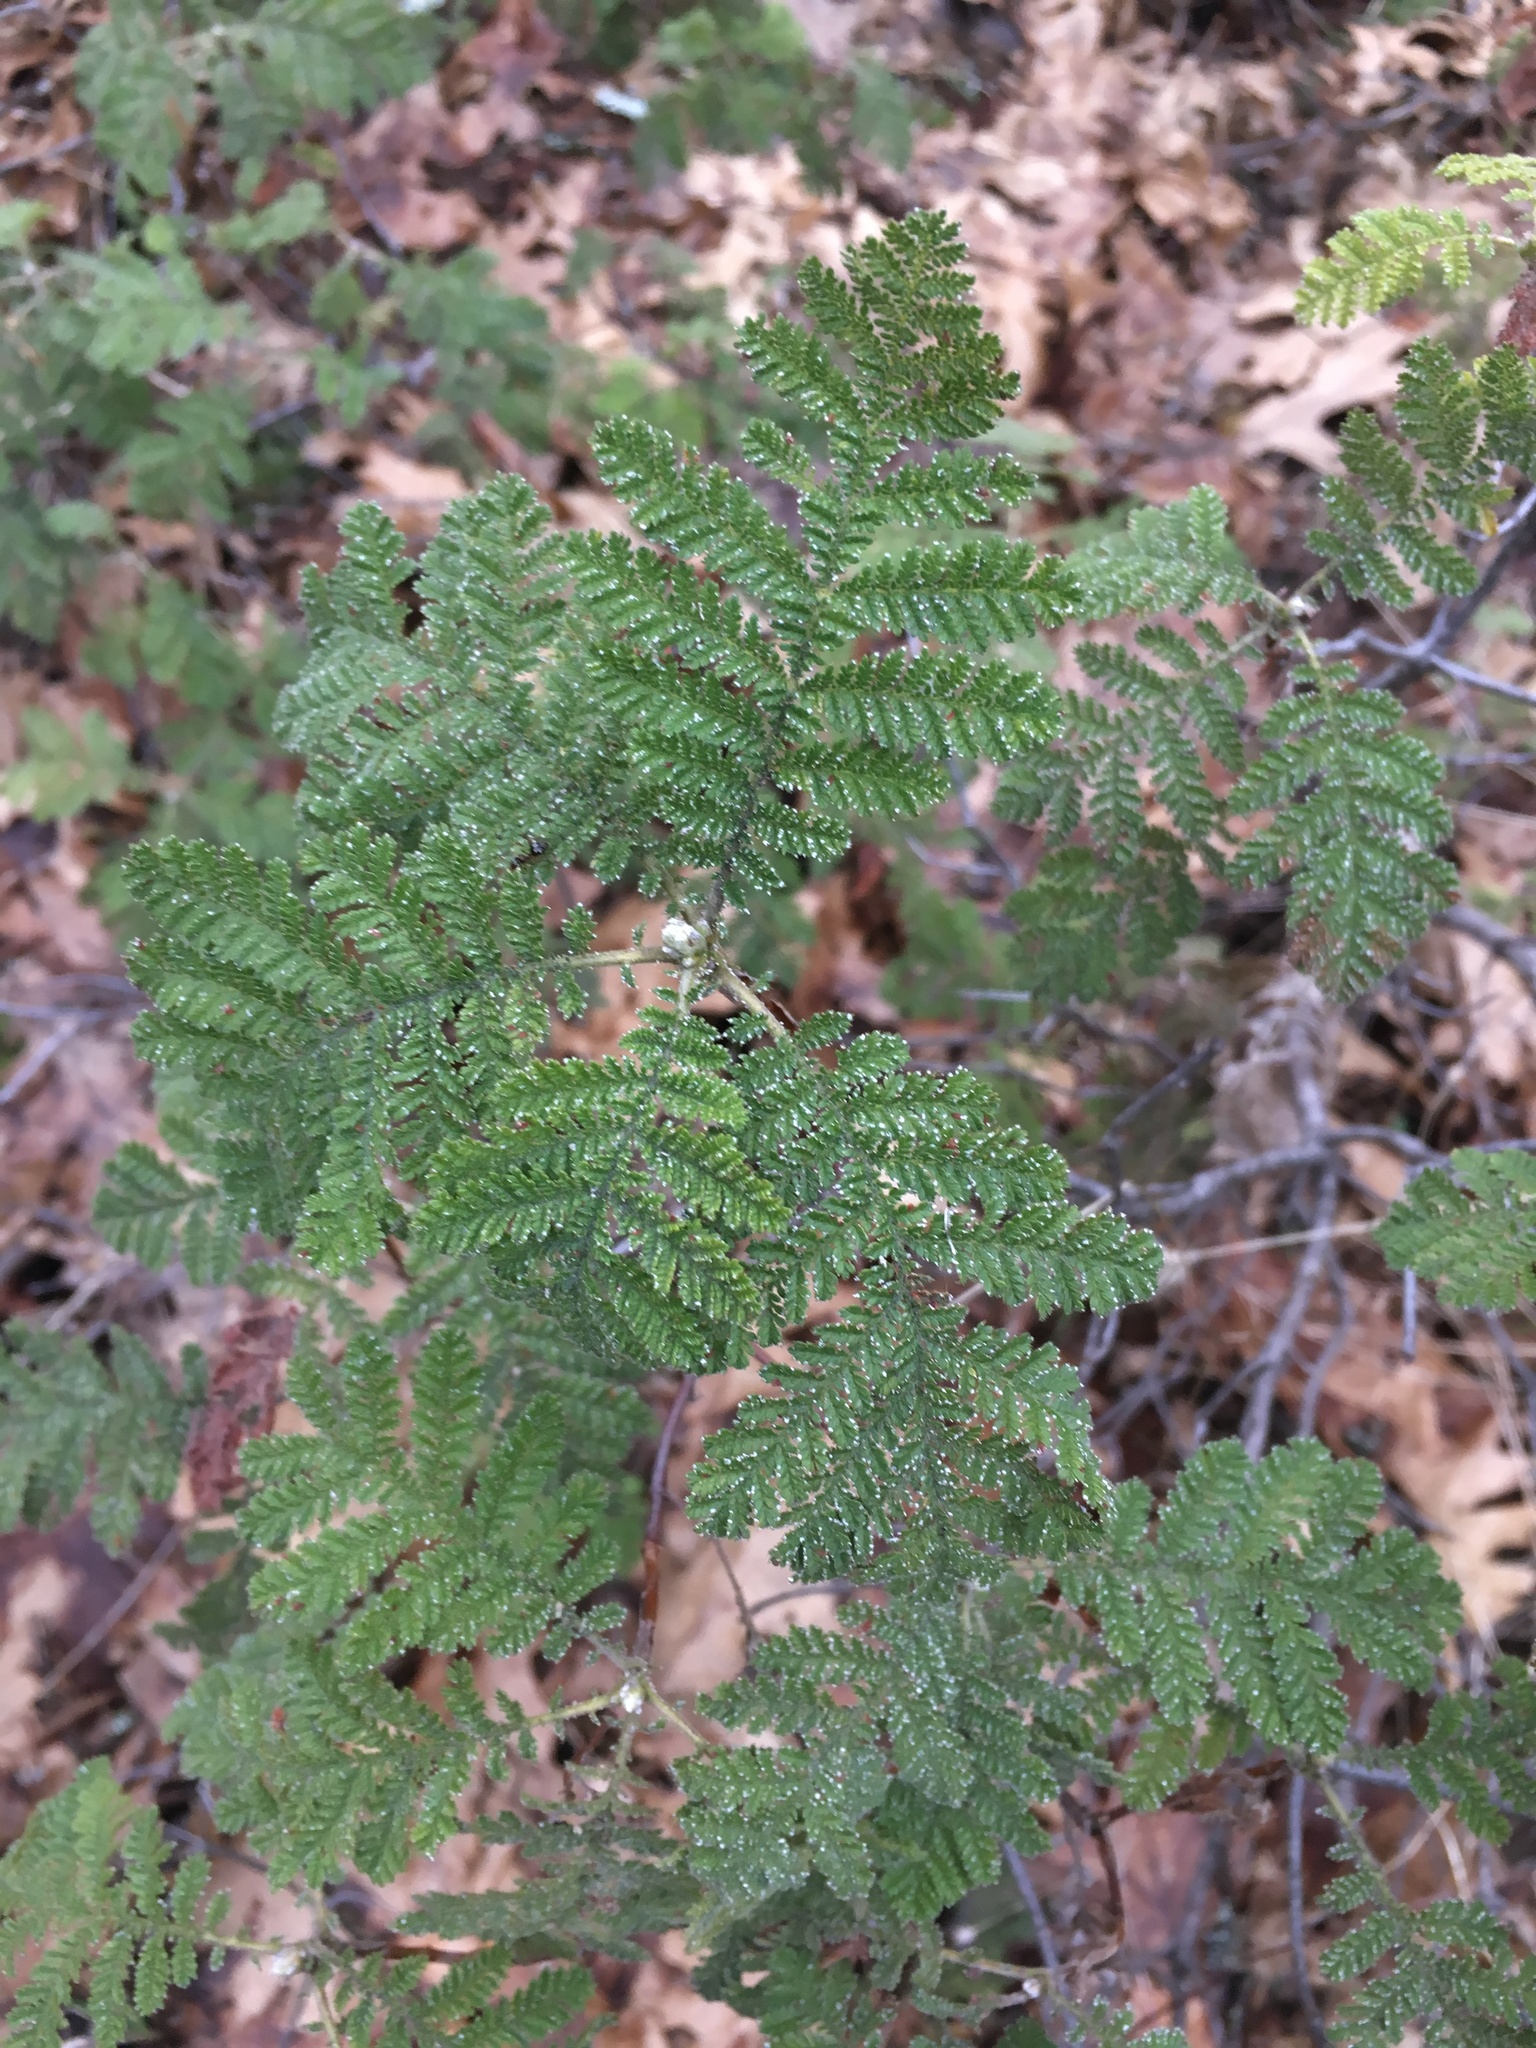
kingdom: Plantae
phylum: Tracheophyta
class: Magnoliopsida
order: Rosales
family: Rosaceae
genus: Chamaebatia
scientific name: Chamaebatia foliolosa
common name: Mountain misery
